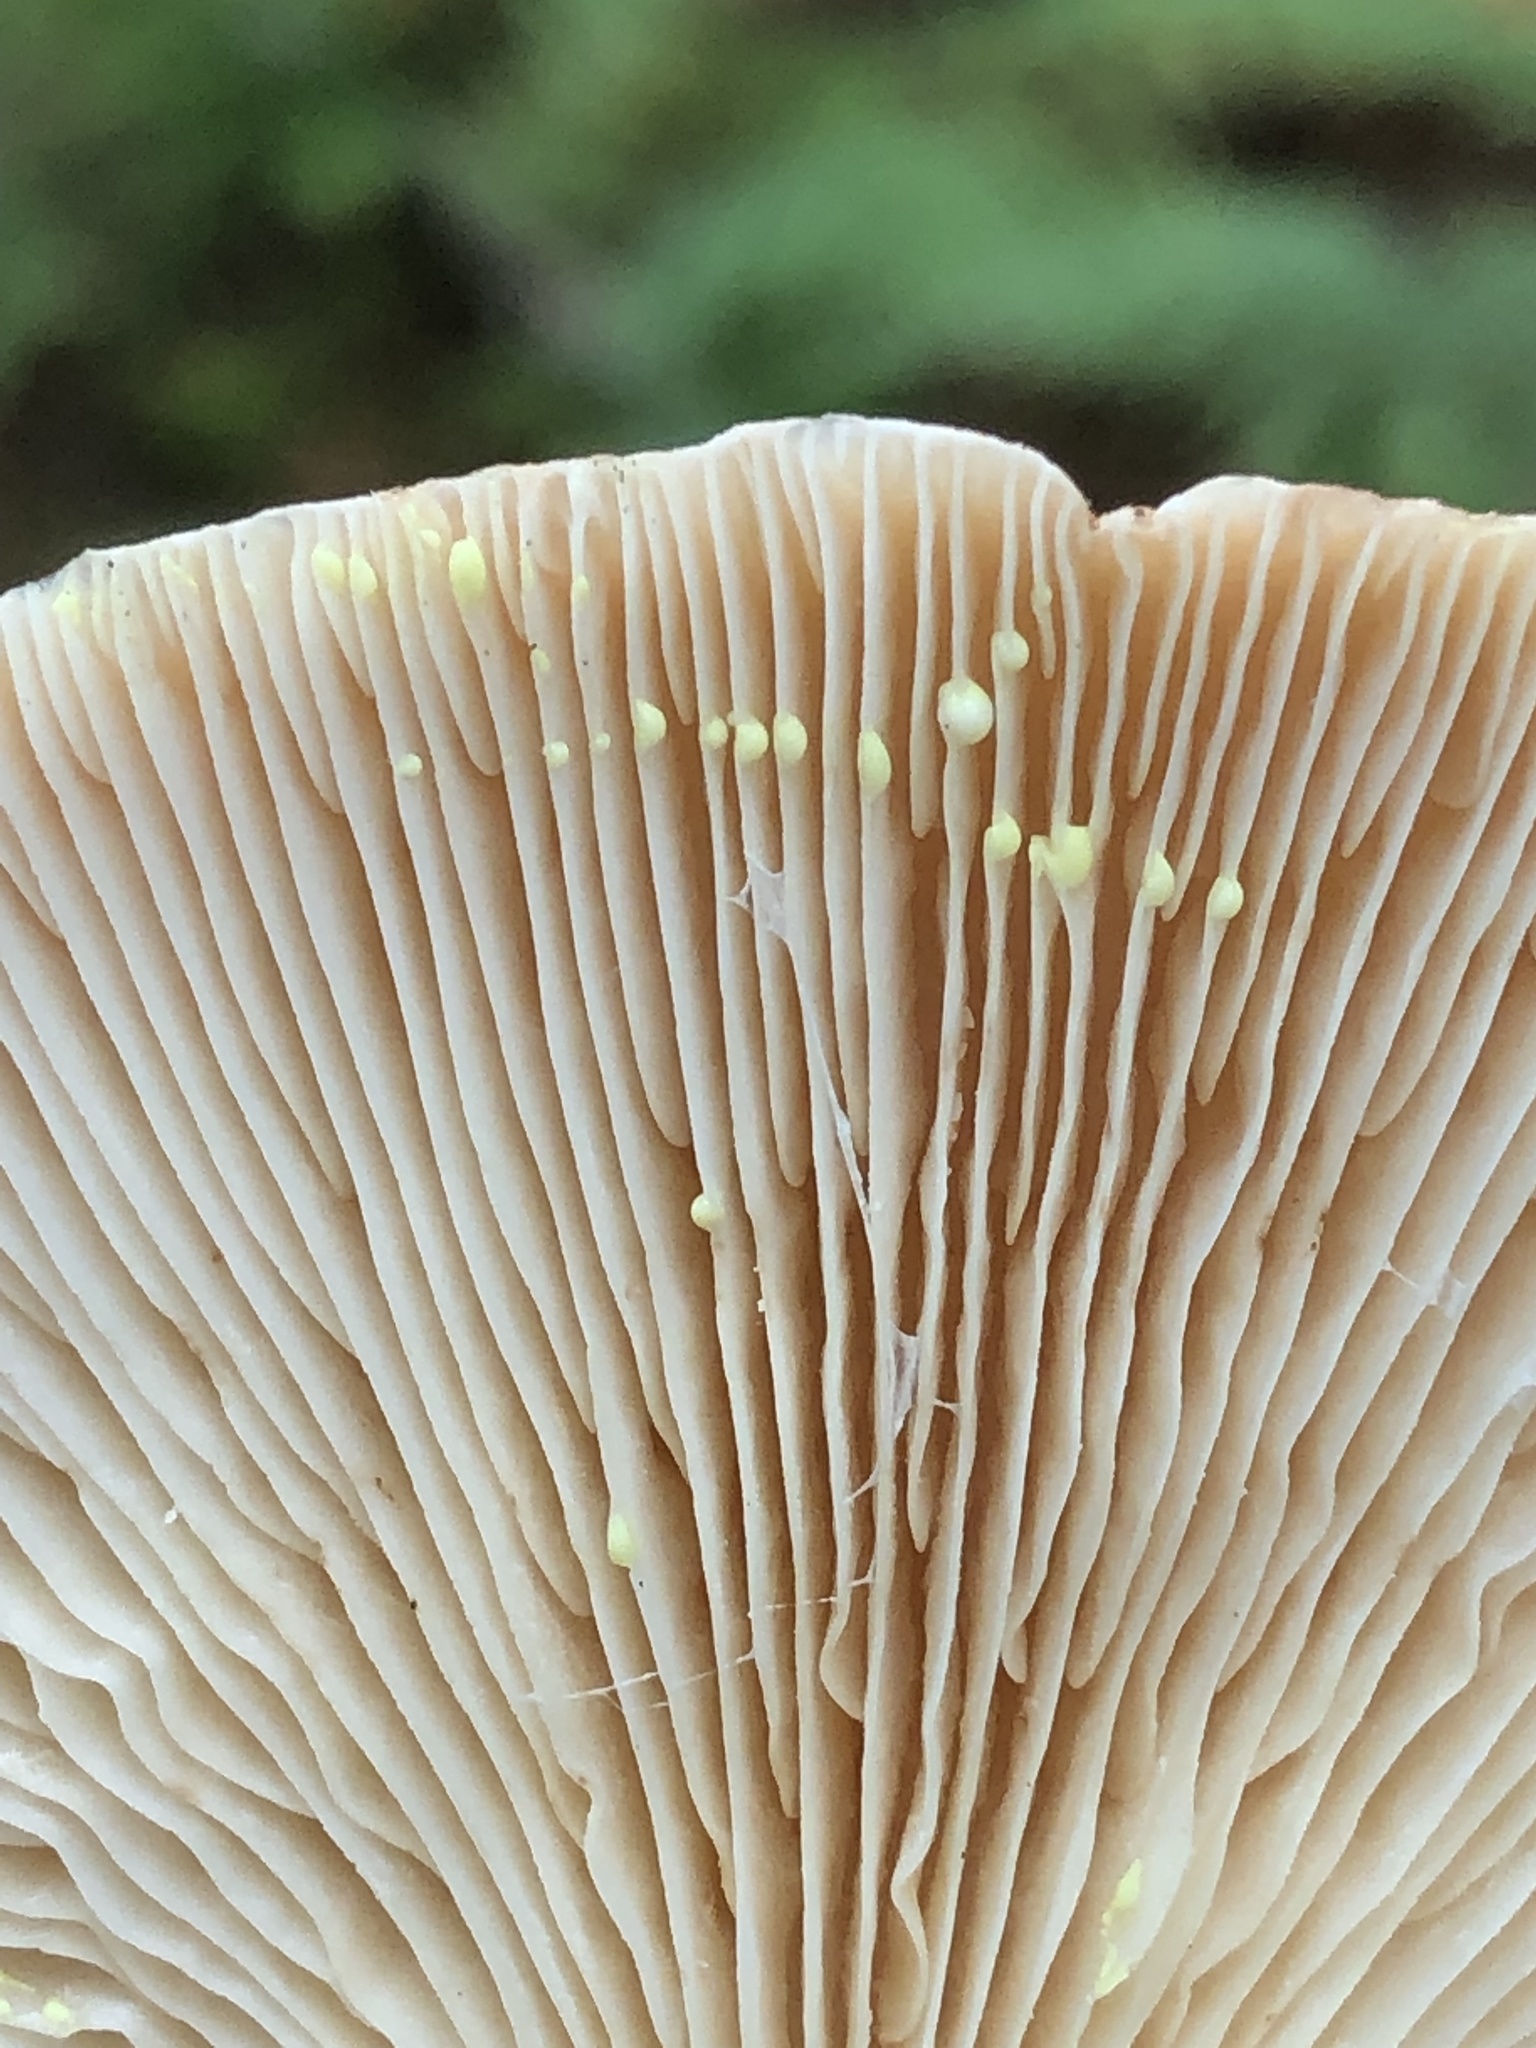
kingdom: Fungi
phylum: Basidiomycota
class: Agaricomycetes
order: Russulales
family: Russulaceae
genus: Lactarius
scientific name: Lactarius vinaceorufescens
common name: Yellow-latex milkcap
